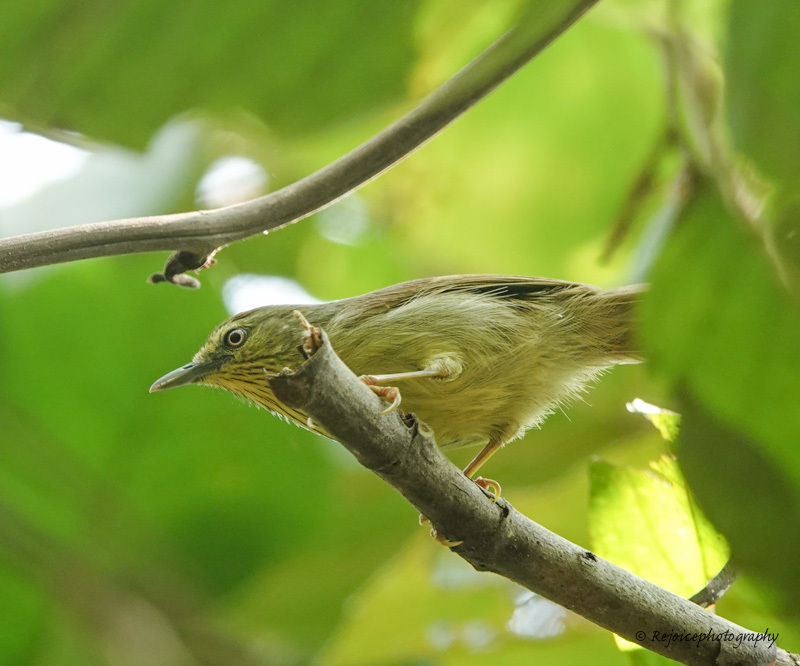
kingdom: Animalia
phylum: Chordata
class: Aves
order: Passeriformes
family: Timaliidae
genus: Macronus
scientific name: Macronus gularis
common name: Striped tit-babbler
